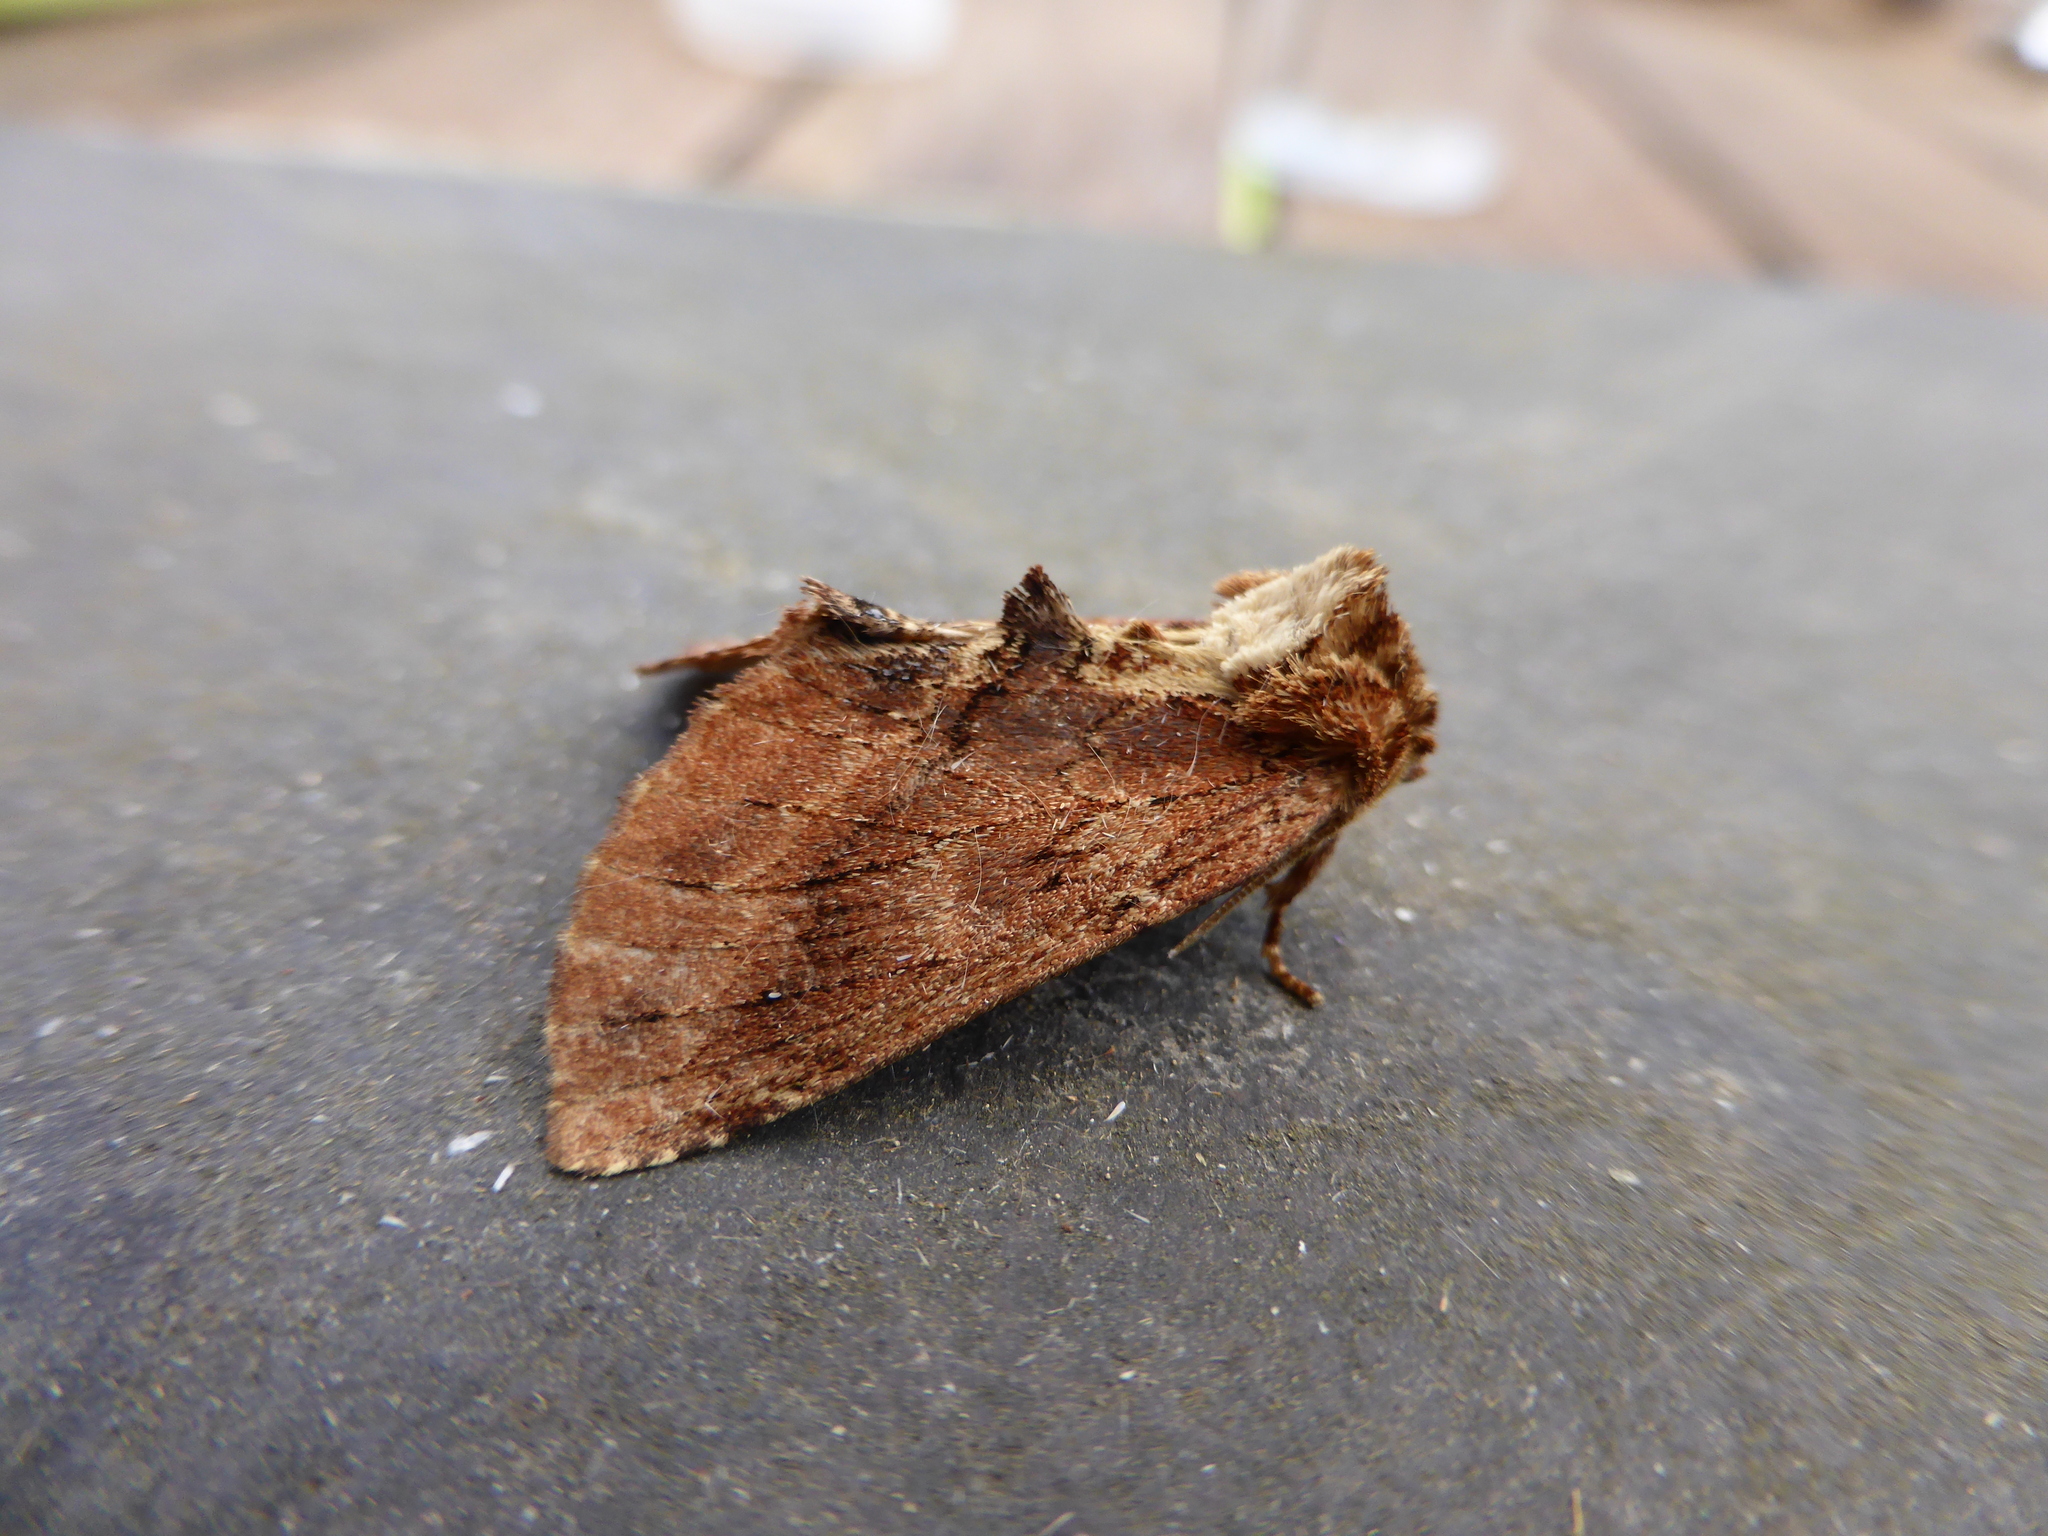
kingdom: Animalia
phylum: Arthropoda
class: Insecta
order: Lepidoptera
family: Notodontidae
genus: Ptilodon
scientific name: Ptilodon capucina
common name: Coxcomb prominent
